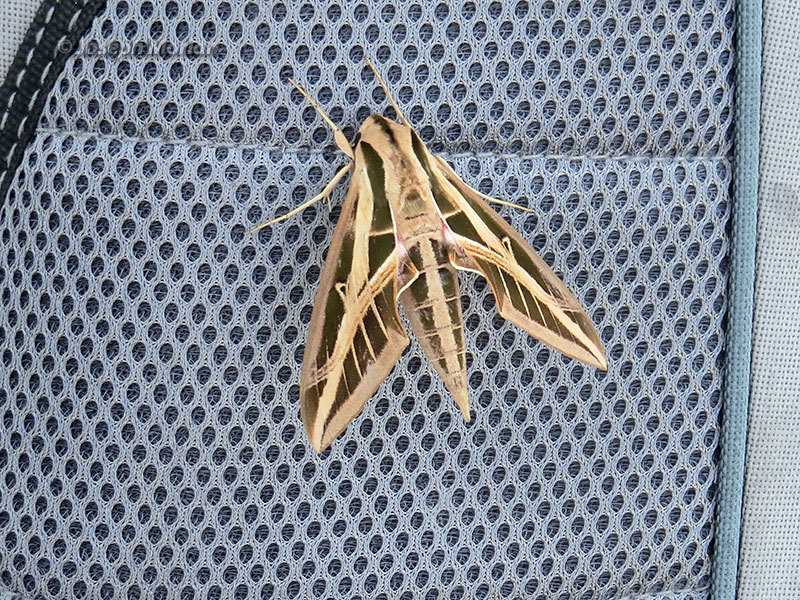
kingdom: Animalia
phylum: Arthropoda
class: Insecta
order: Lepidoptera
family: Sphingidae
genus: Eumorpha
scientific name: Eumorpha fasciatus
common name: Banded sphinx
